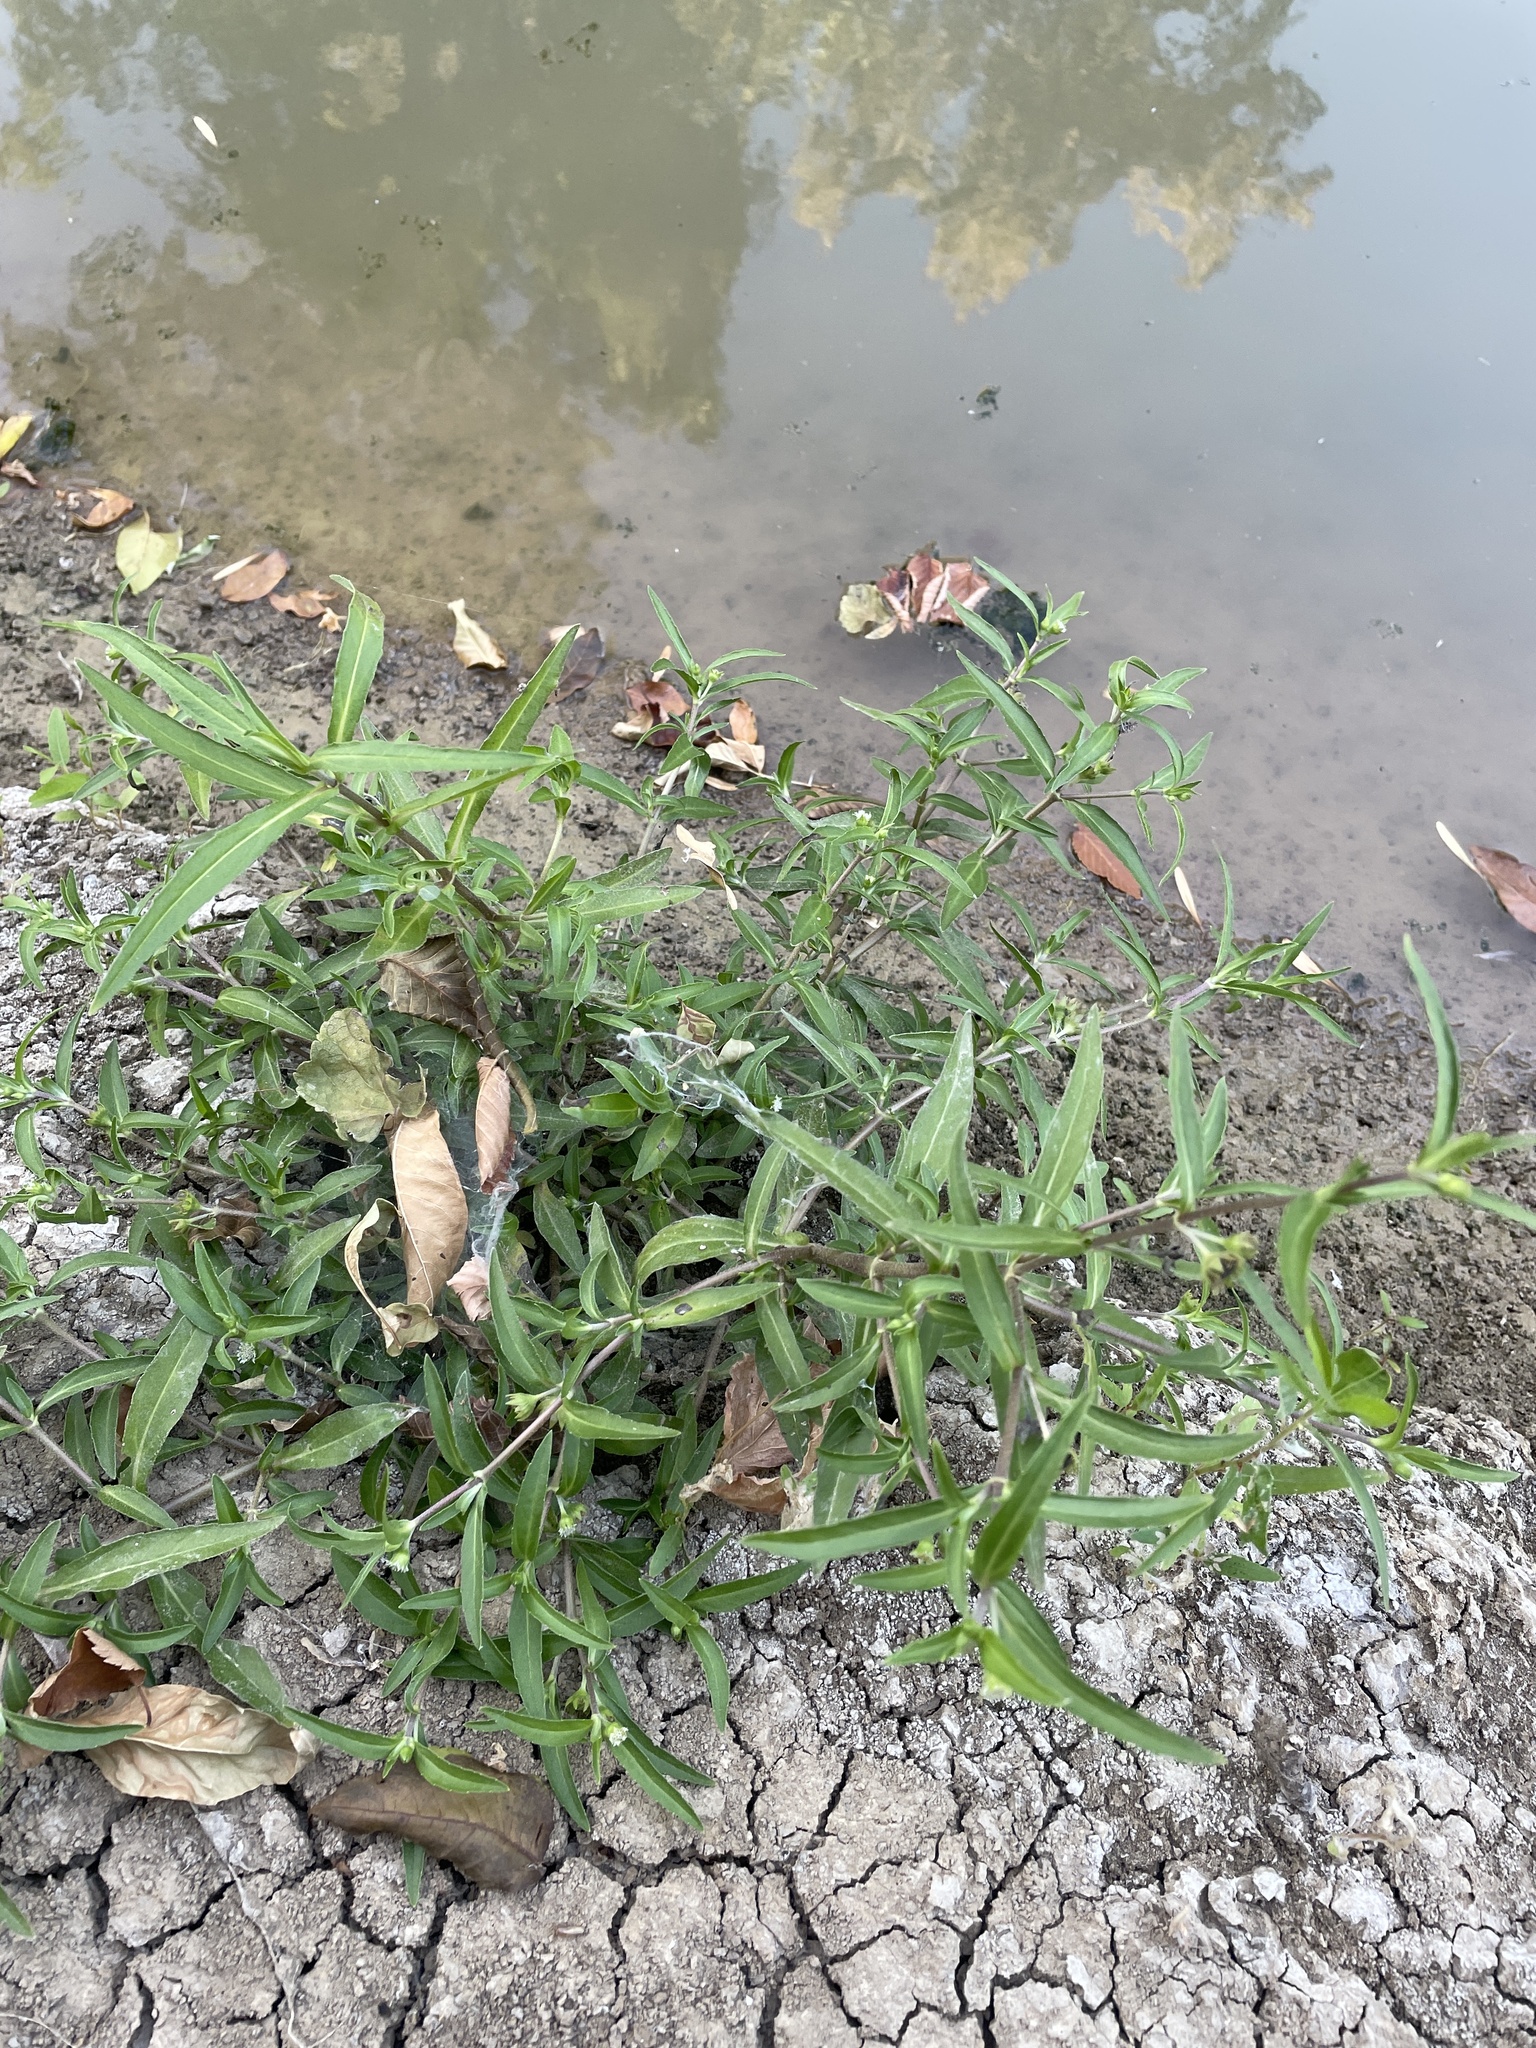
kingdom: Plantae
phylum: Tracheophyta
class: Magnoliopsida
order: Asterales
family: Asteraceae
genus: Eclipta
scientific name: Eclipta prostrata
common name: False daisy
